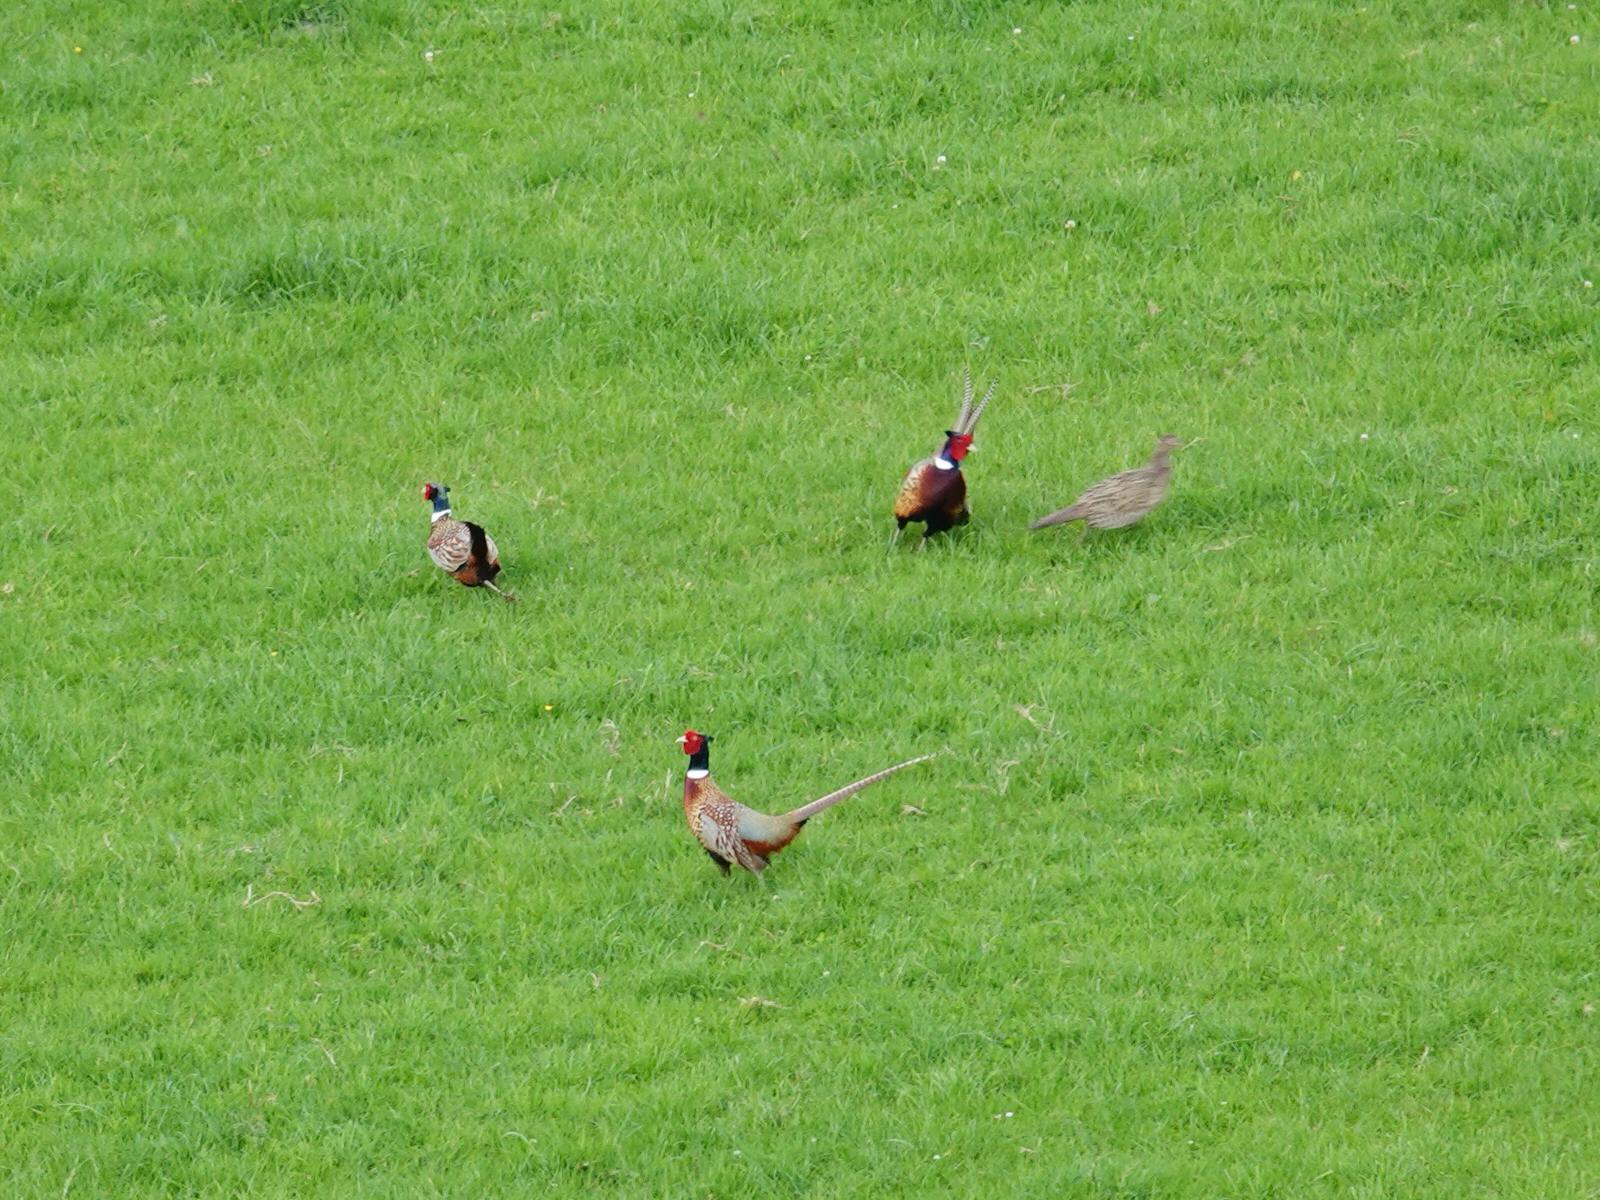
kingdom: Animalia
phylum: Chordata
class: Aves
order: Galliformes
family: Phasianidae
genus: Phasianus
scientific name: Phasianus colchicus
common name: Common pheasant
